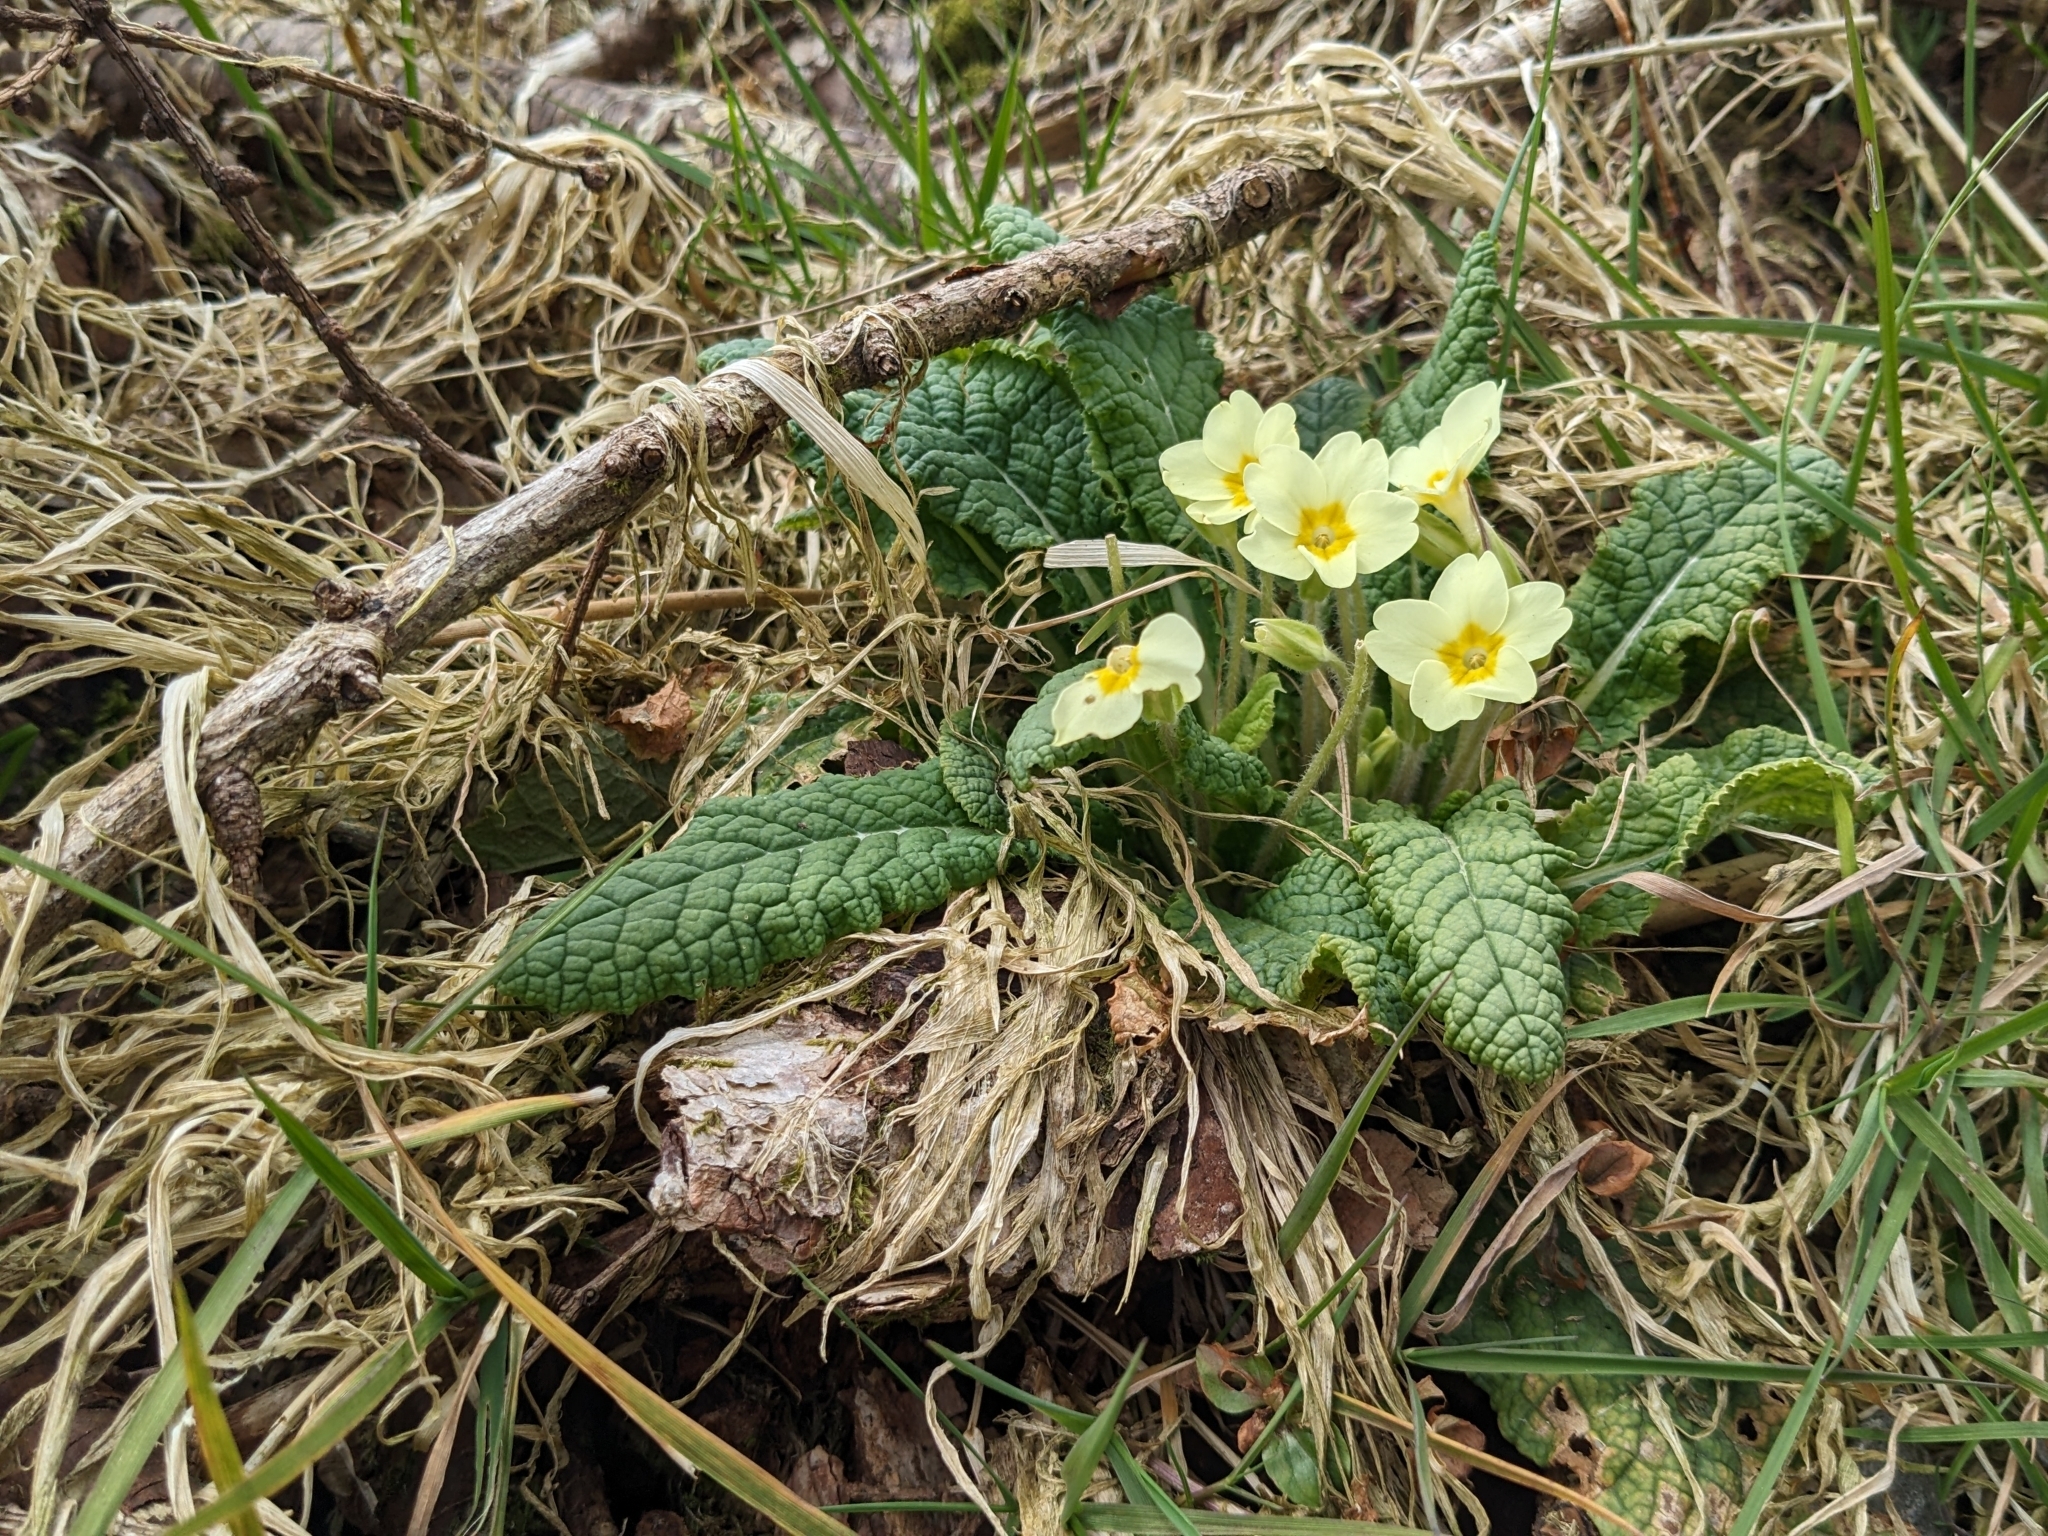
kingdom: Plantae
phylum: Tracheophyta
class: Magnoliopsida
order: Ericales
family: Primulaceae
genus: Primula
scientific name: Primula vulgaris
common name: Primrose
